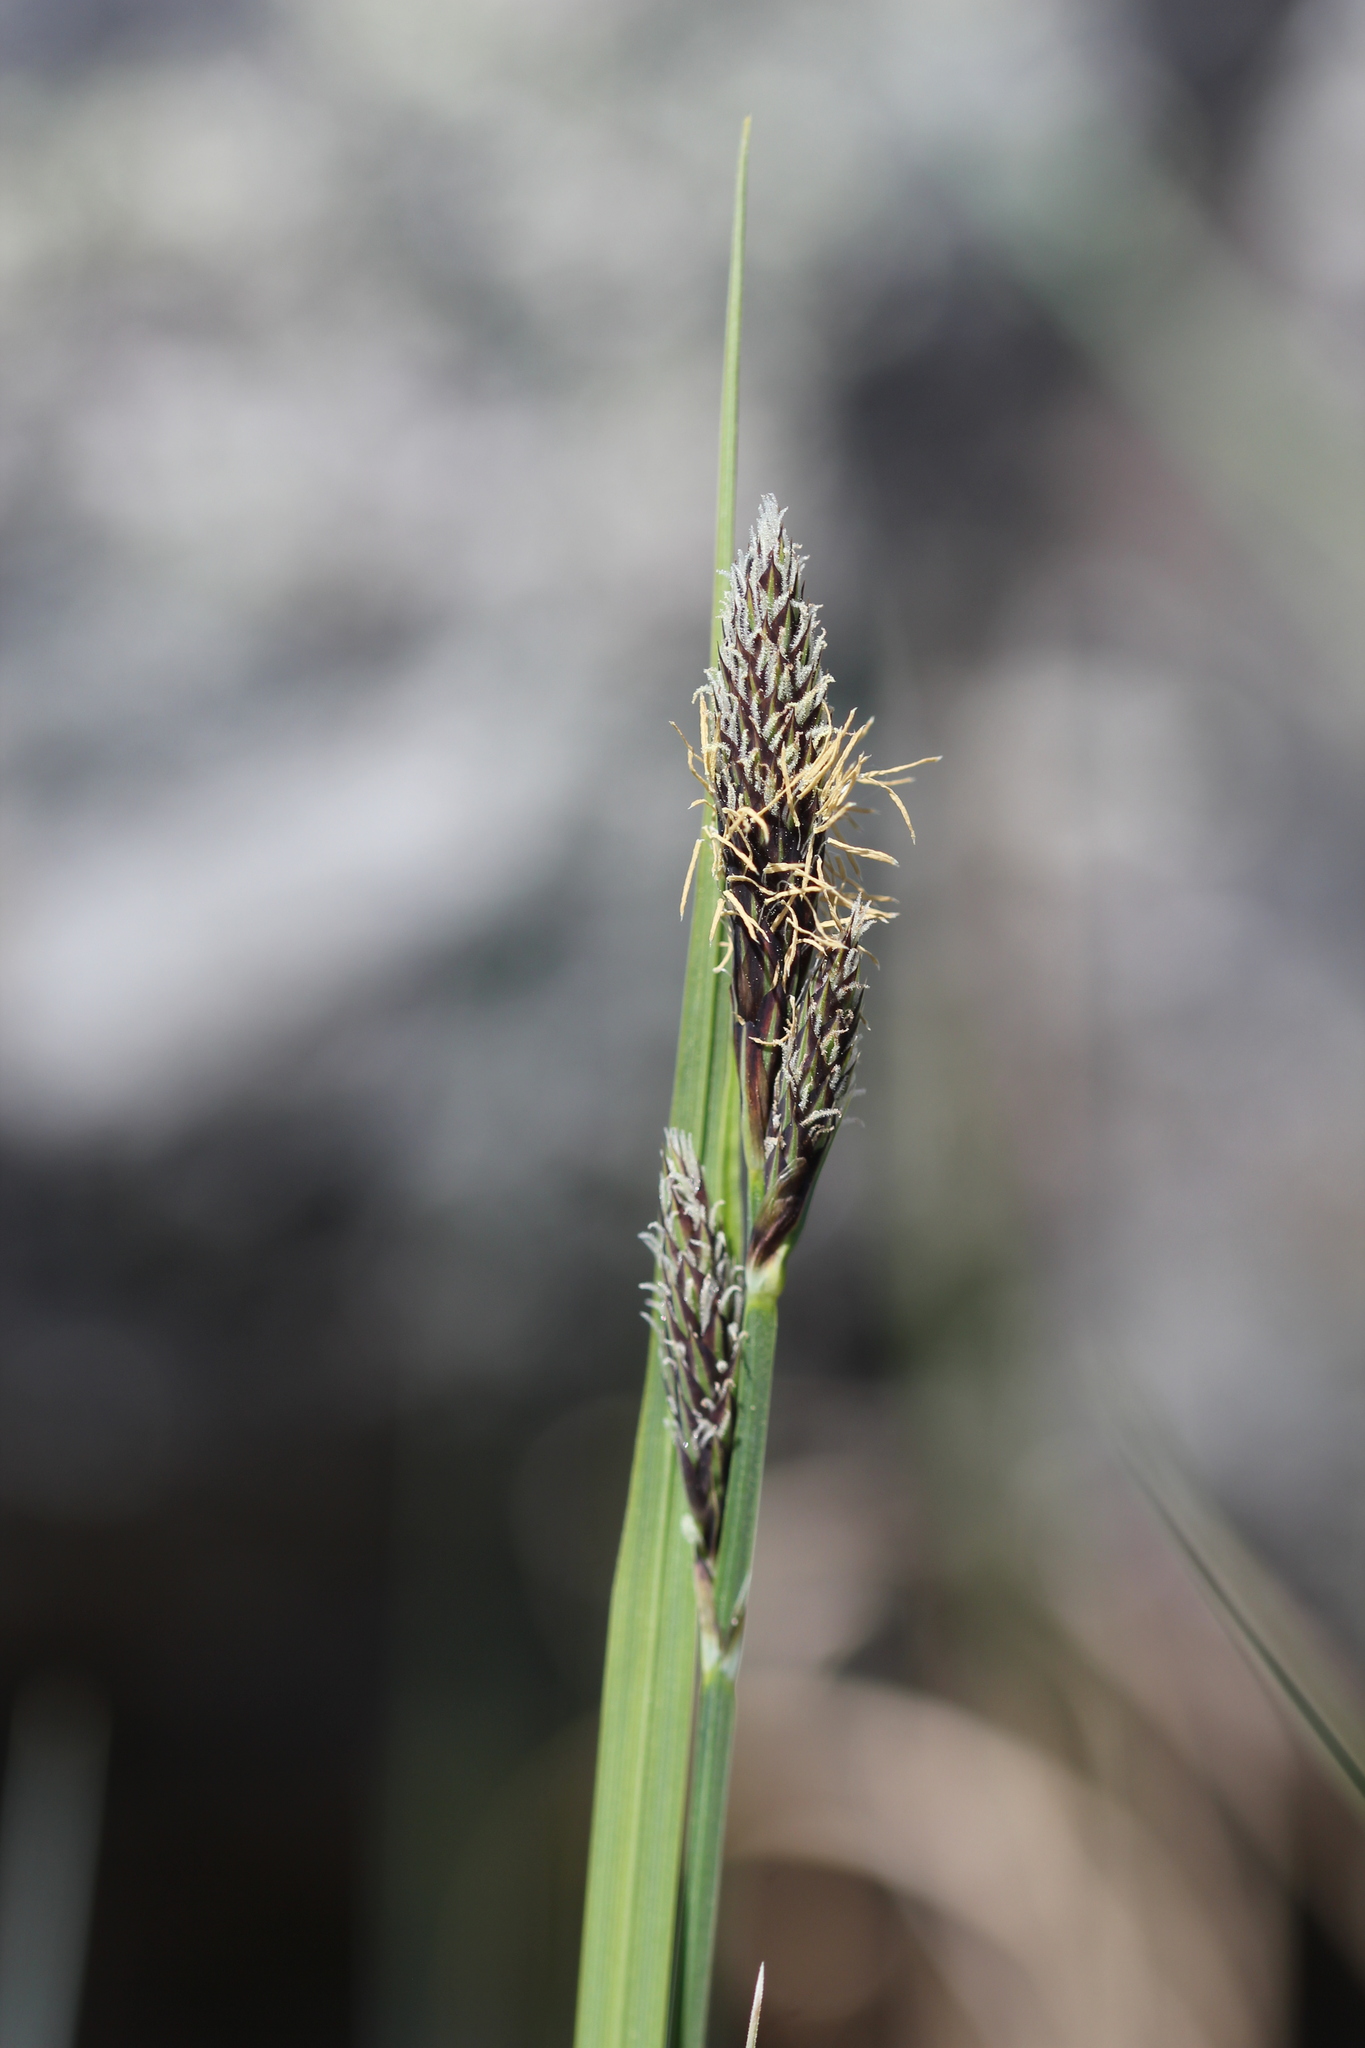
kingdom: Plantae
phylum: Tracheophyta
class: Liliopsida
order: Poales
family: Cyperaceae
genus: Carex
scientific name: Carex buxbaumii
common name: Club sedge
